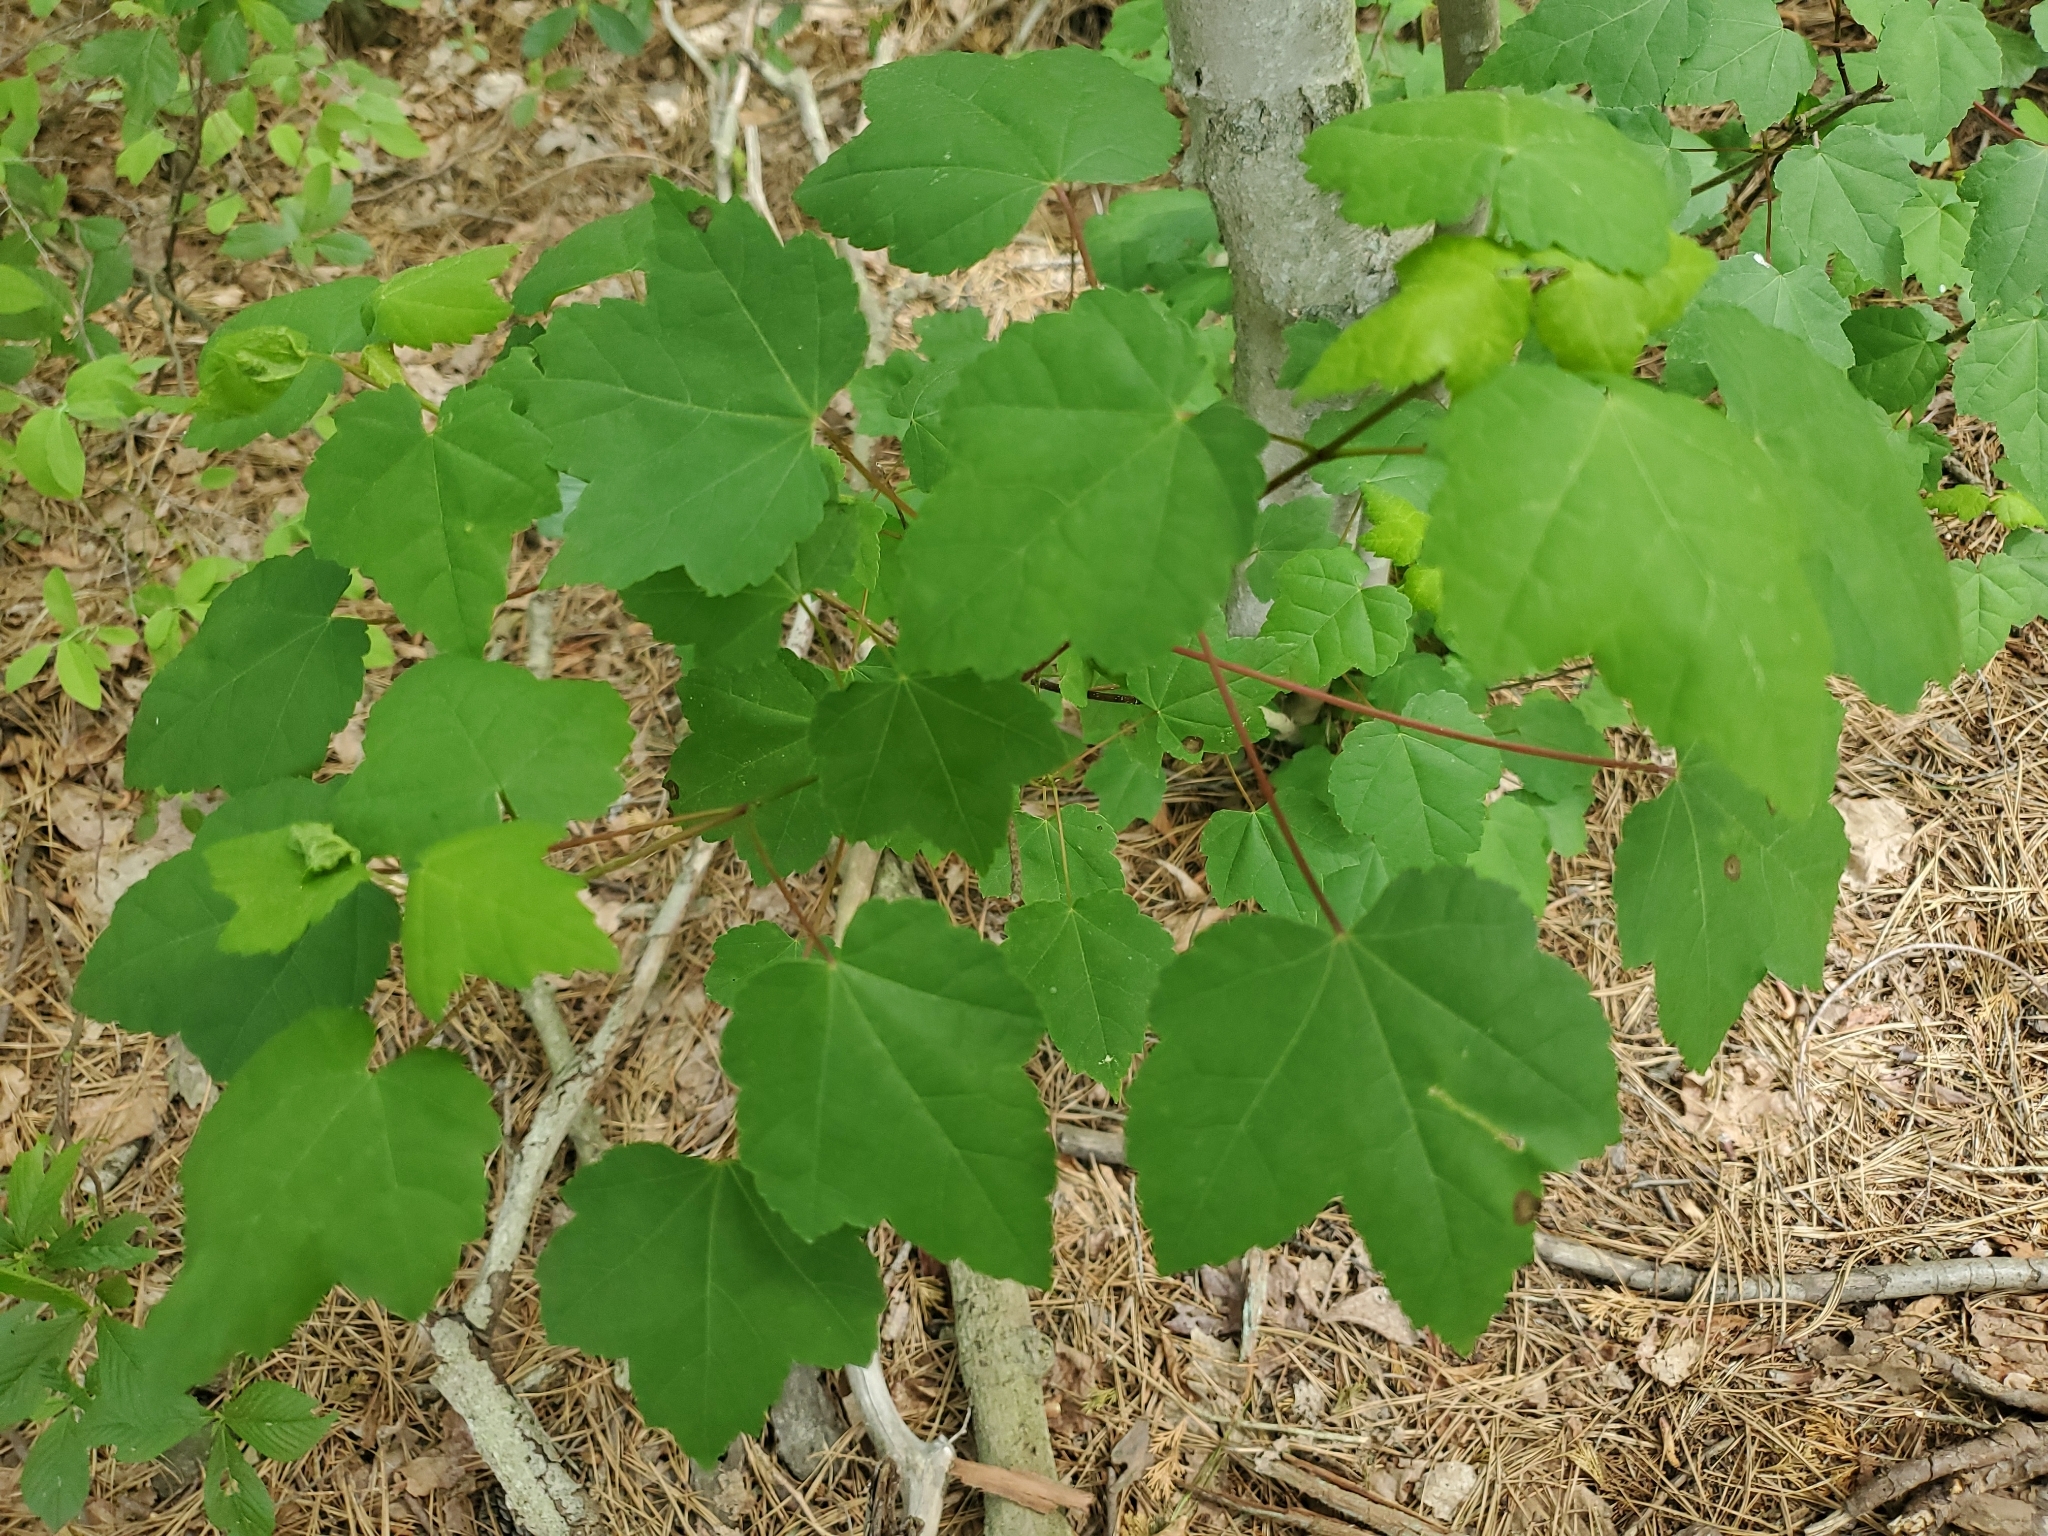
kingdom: Plantae
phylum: Tracheophyta
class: Magnoliopsida
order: Sapindales
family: Sapindaceae
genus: Acer
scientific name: Acer rubrum
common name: Red maple
